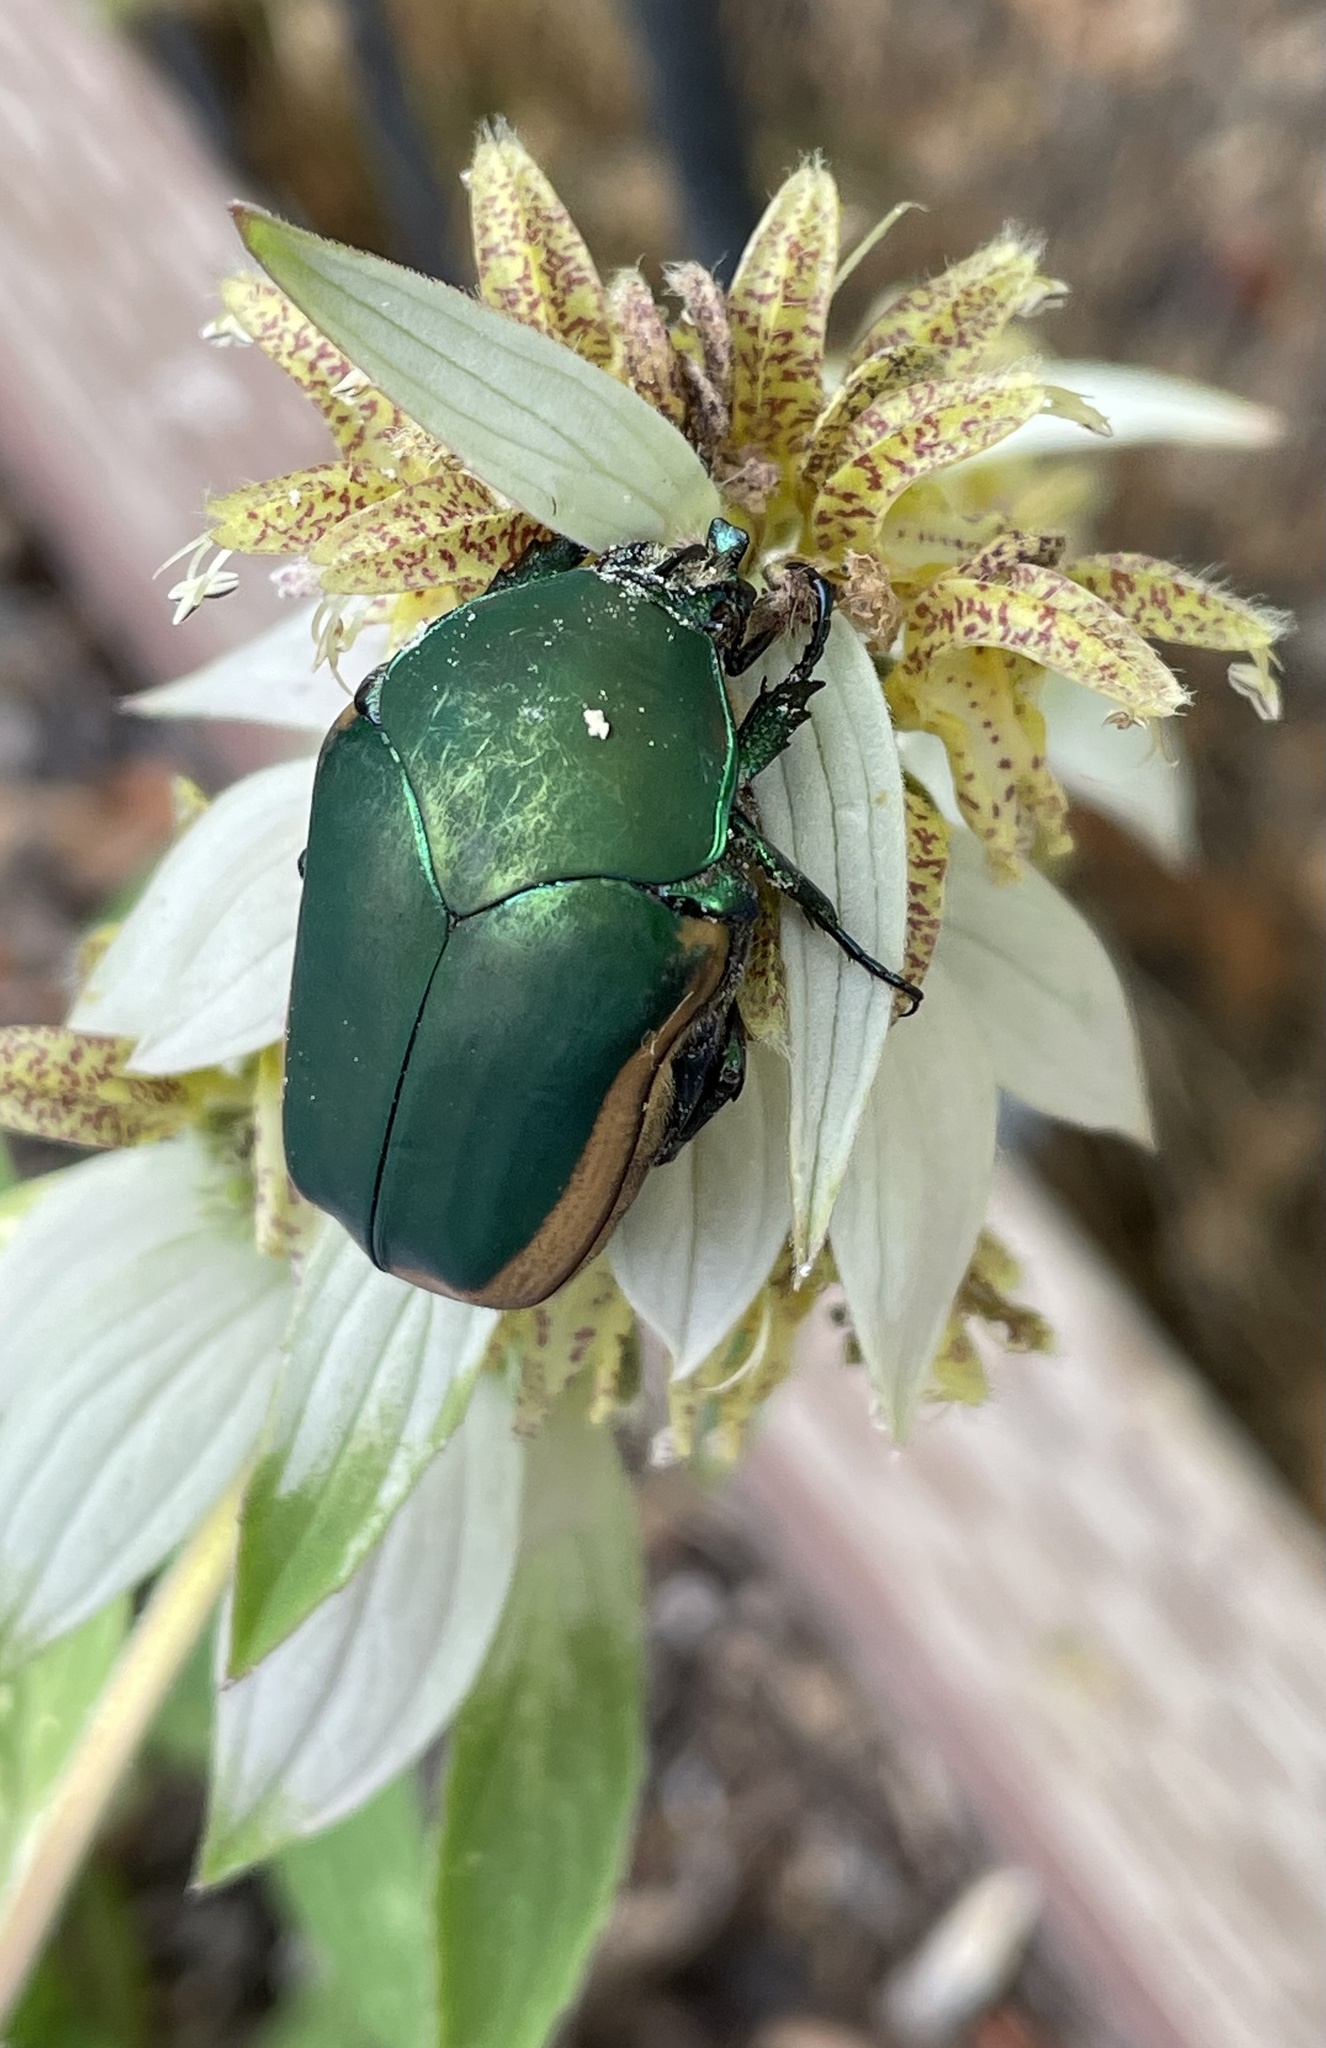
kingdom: Animalia
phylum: Arthropoda
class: Insecta
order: Coleoptera
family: Scarabaeidae
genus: Cotinis
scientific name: Cotinis mutabilis
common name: Figeater beetle
